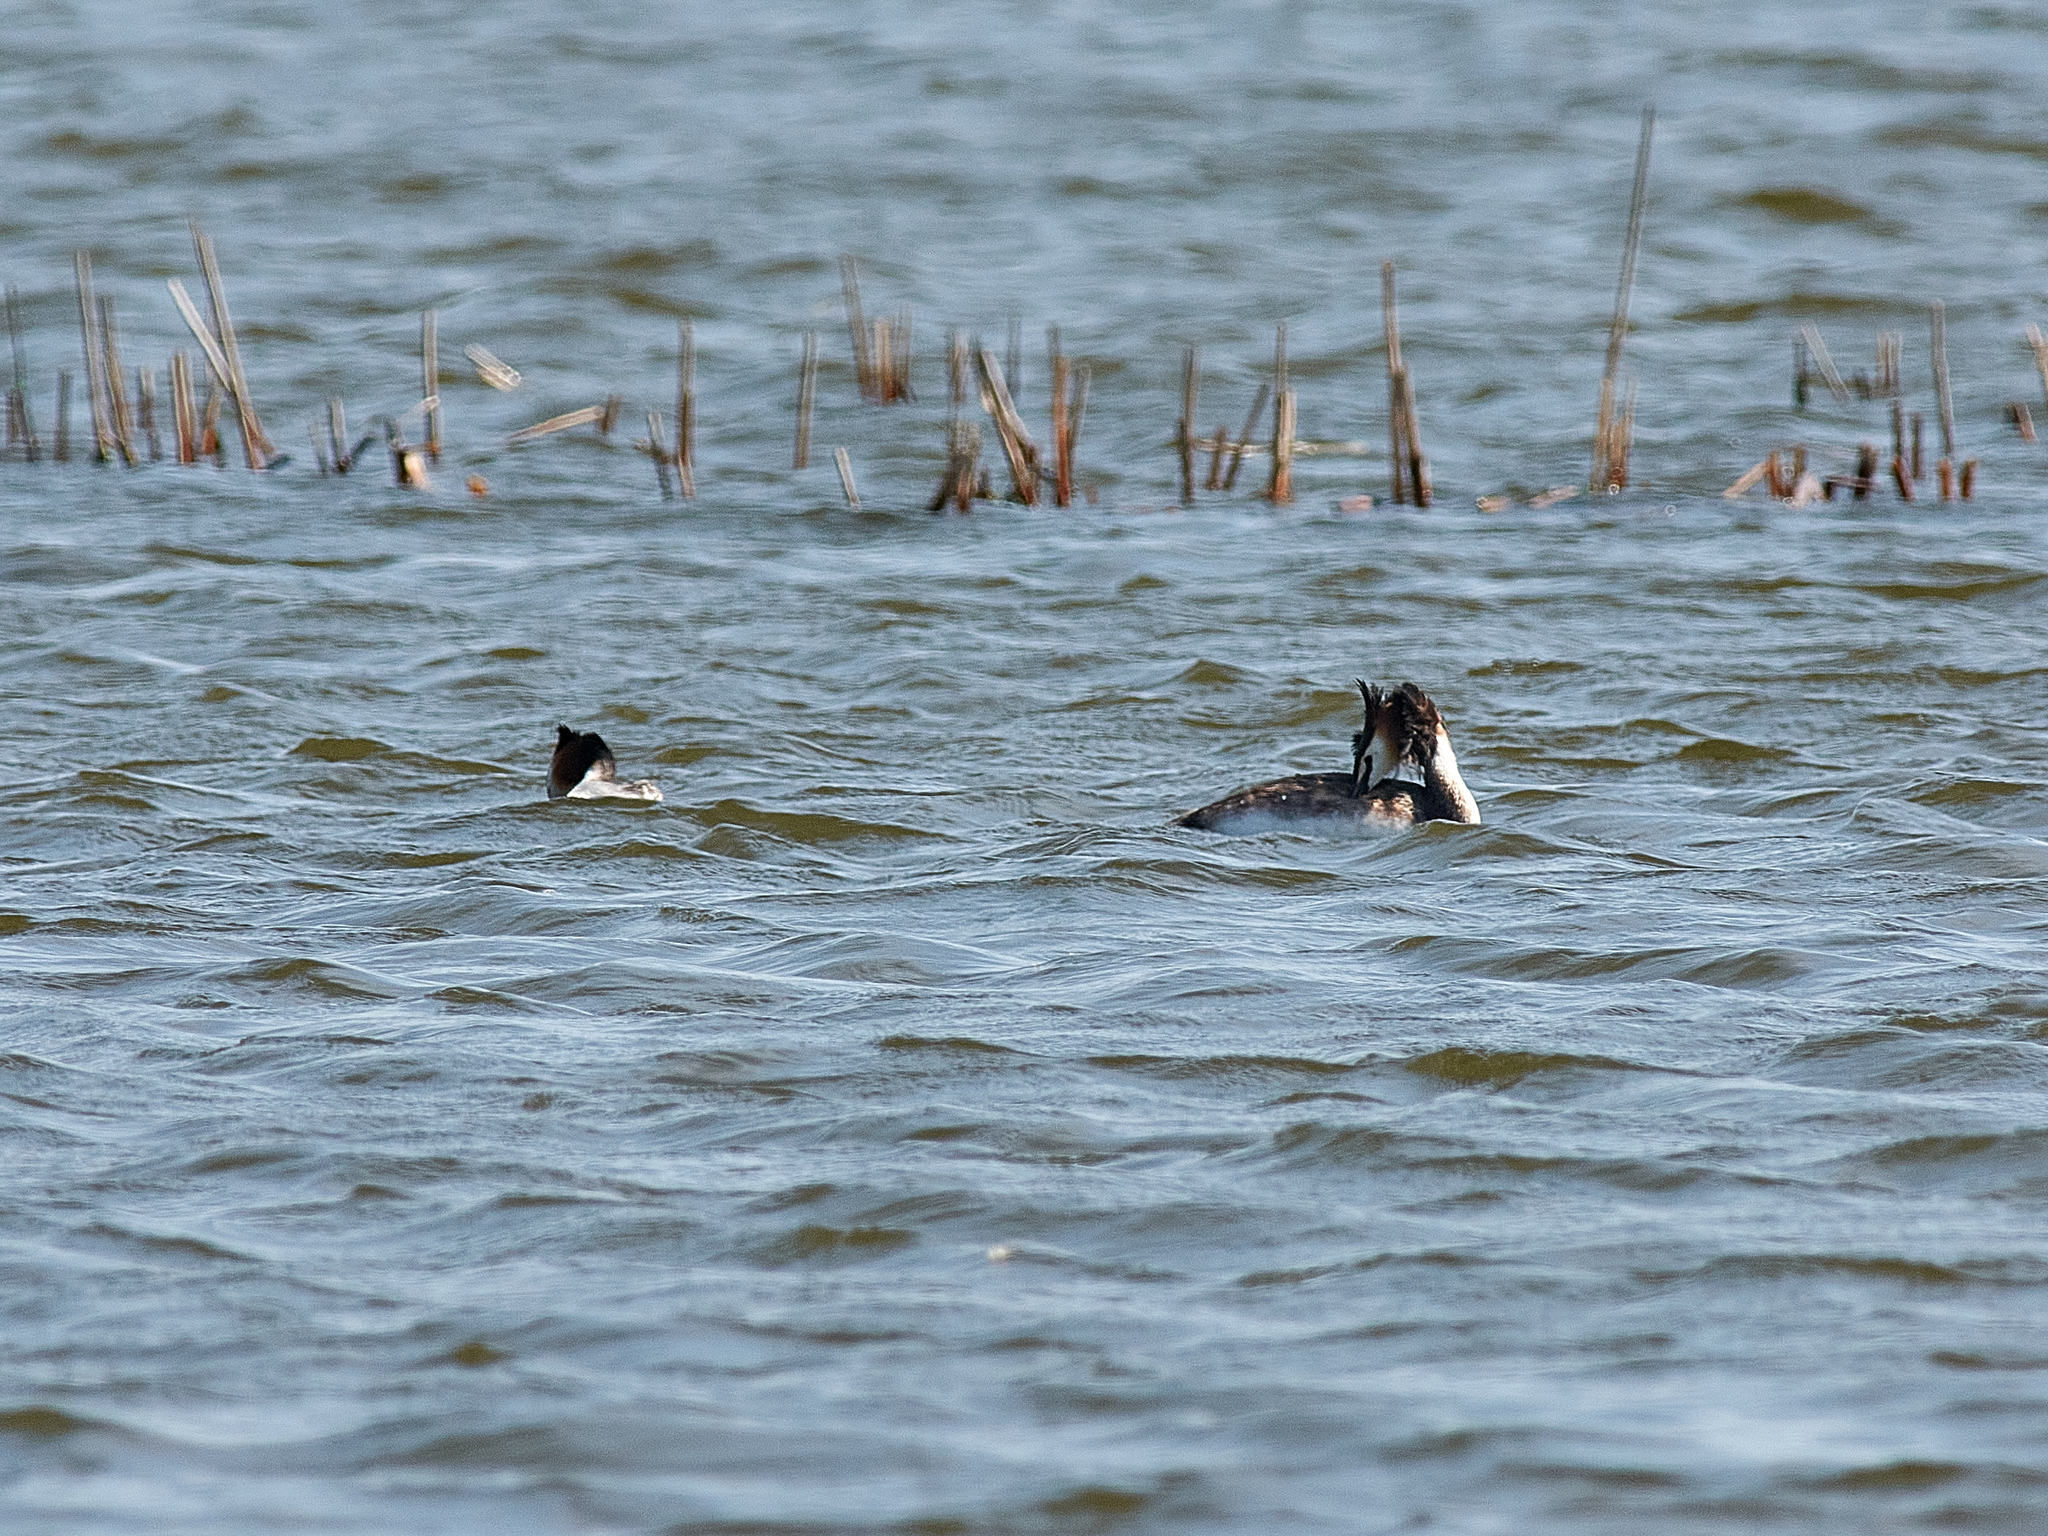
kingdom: Animalia
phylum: Chordata
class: Aves
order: Podicipediformes
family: Podicipedidae
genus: Podiceps
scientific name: Podiceps cristatus
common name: Great crested grebe
